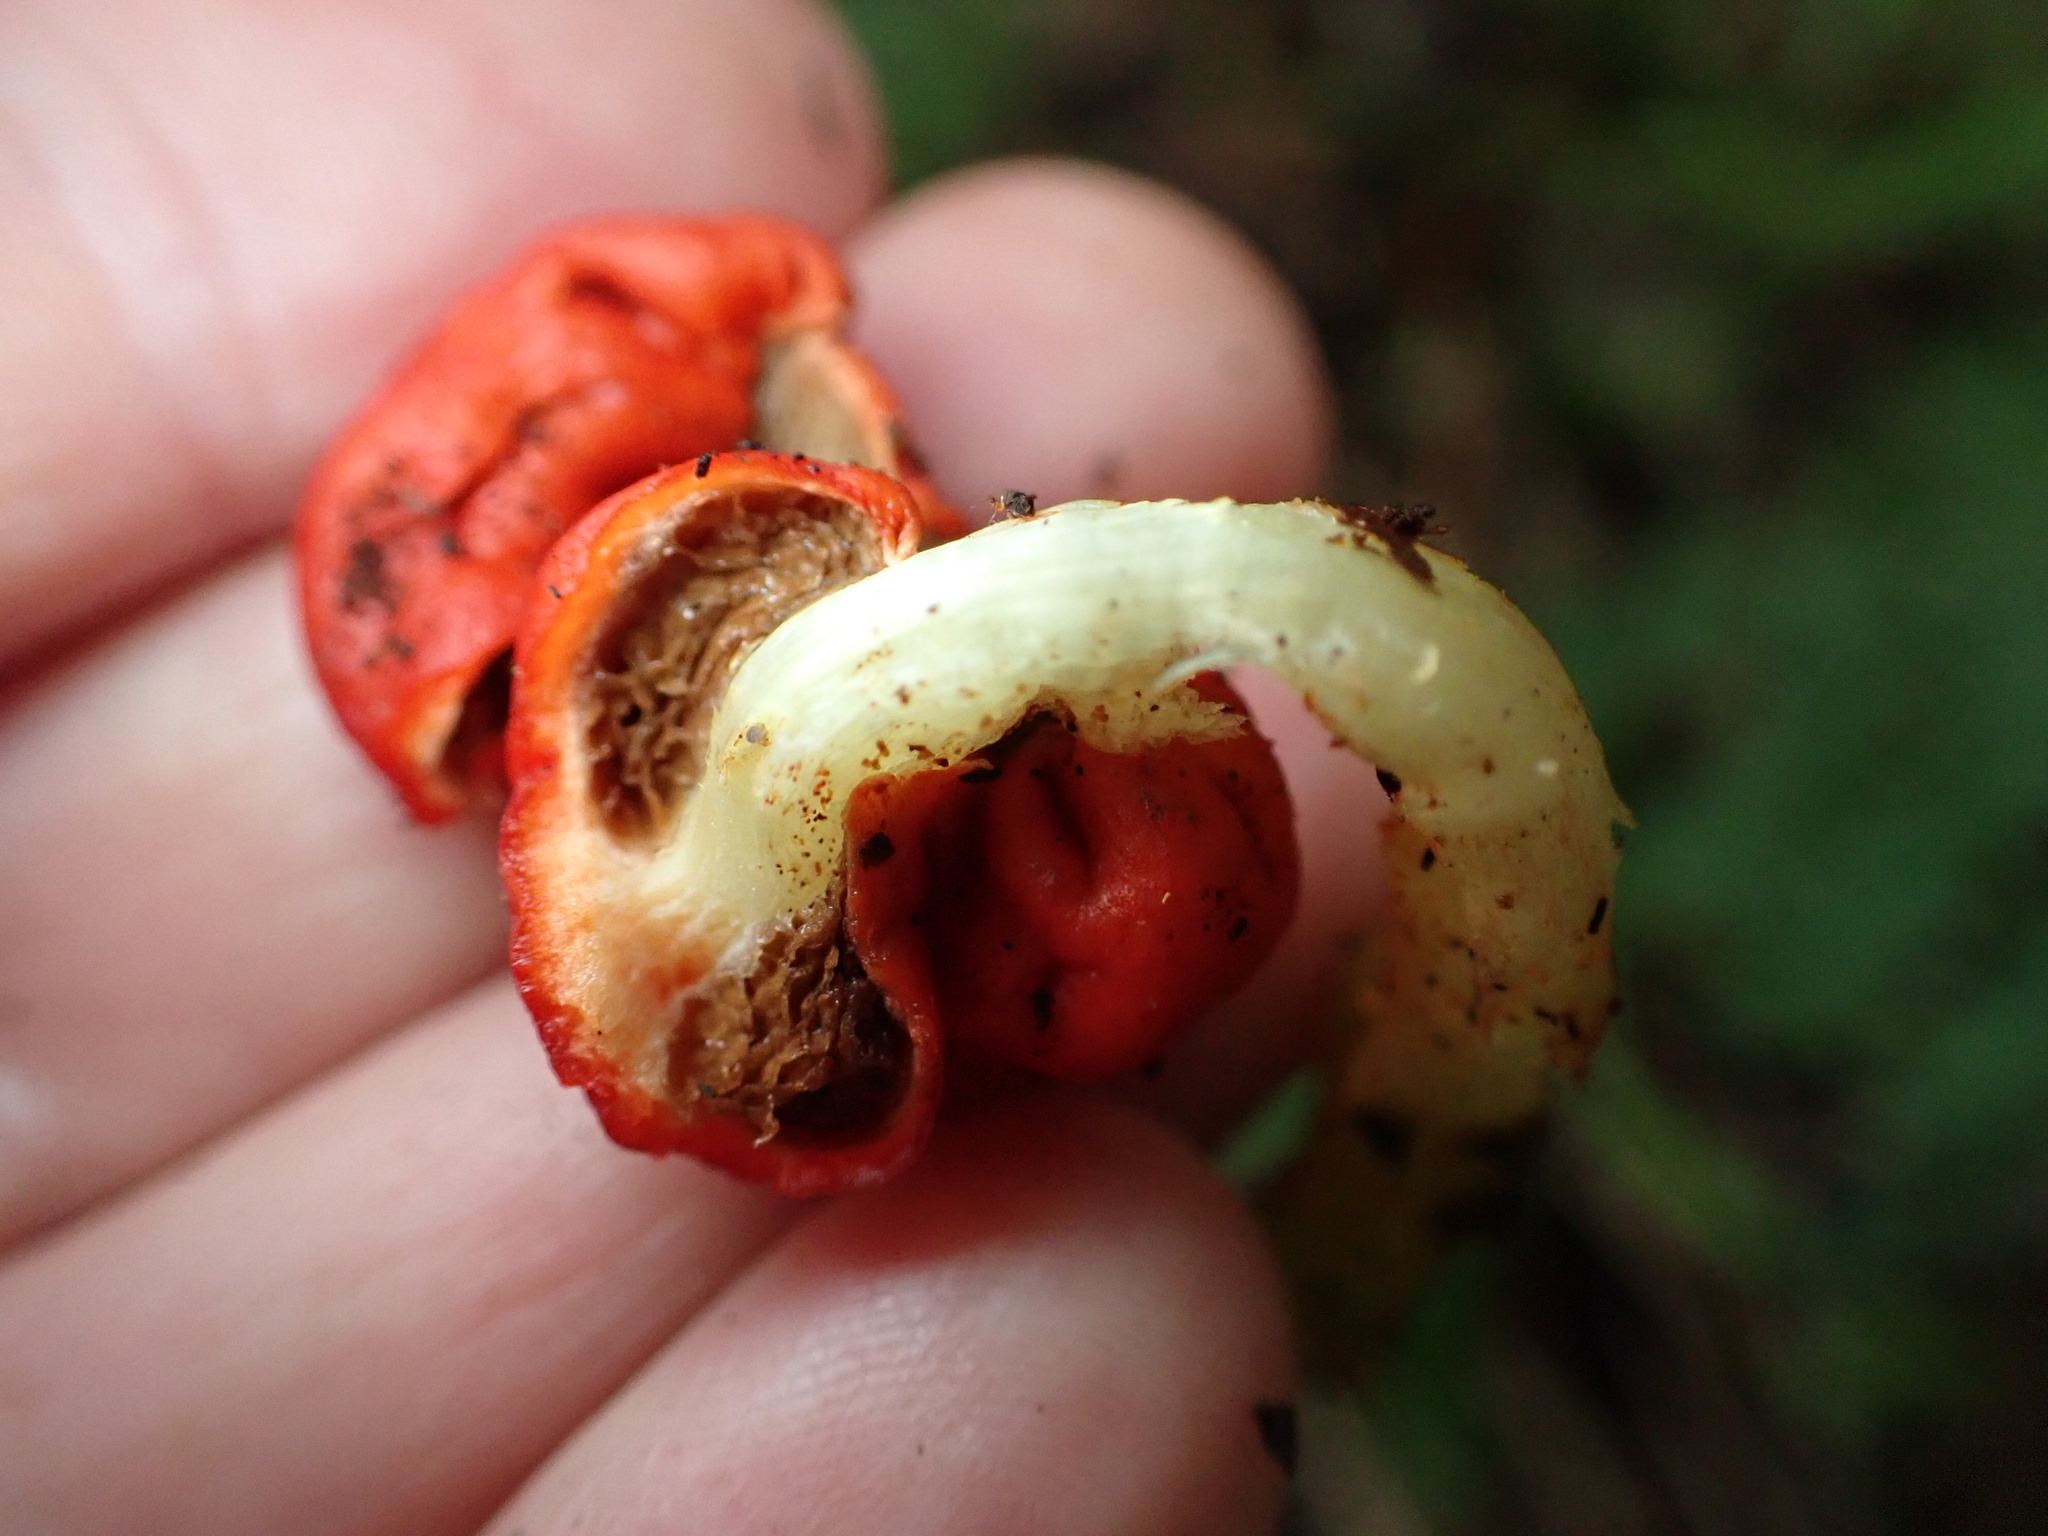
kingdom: Fungi
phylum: Basidiomycota
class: Agaricomycetes
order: Agaricales
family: Strophariaceae
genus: Leratiomyces
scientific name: Leratiomyces erythrocephalus
